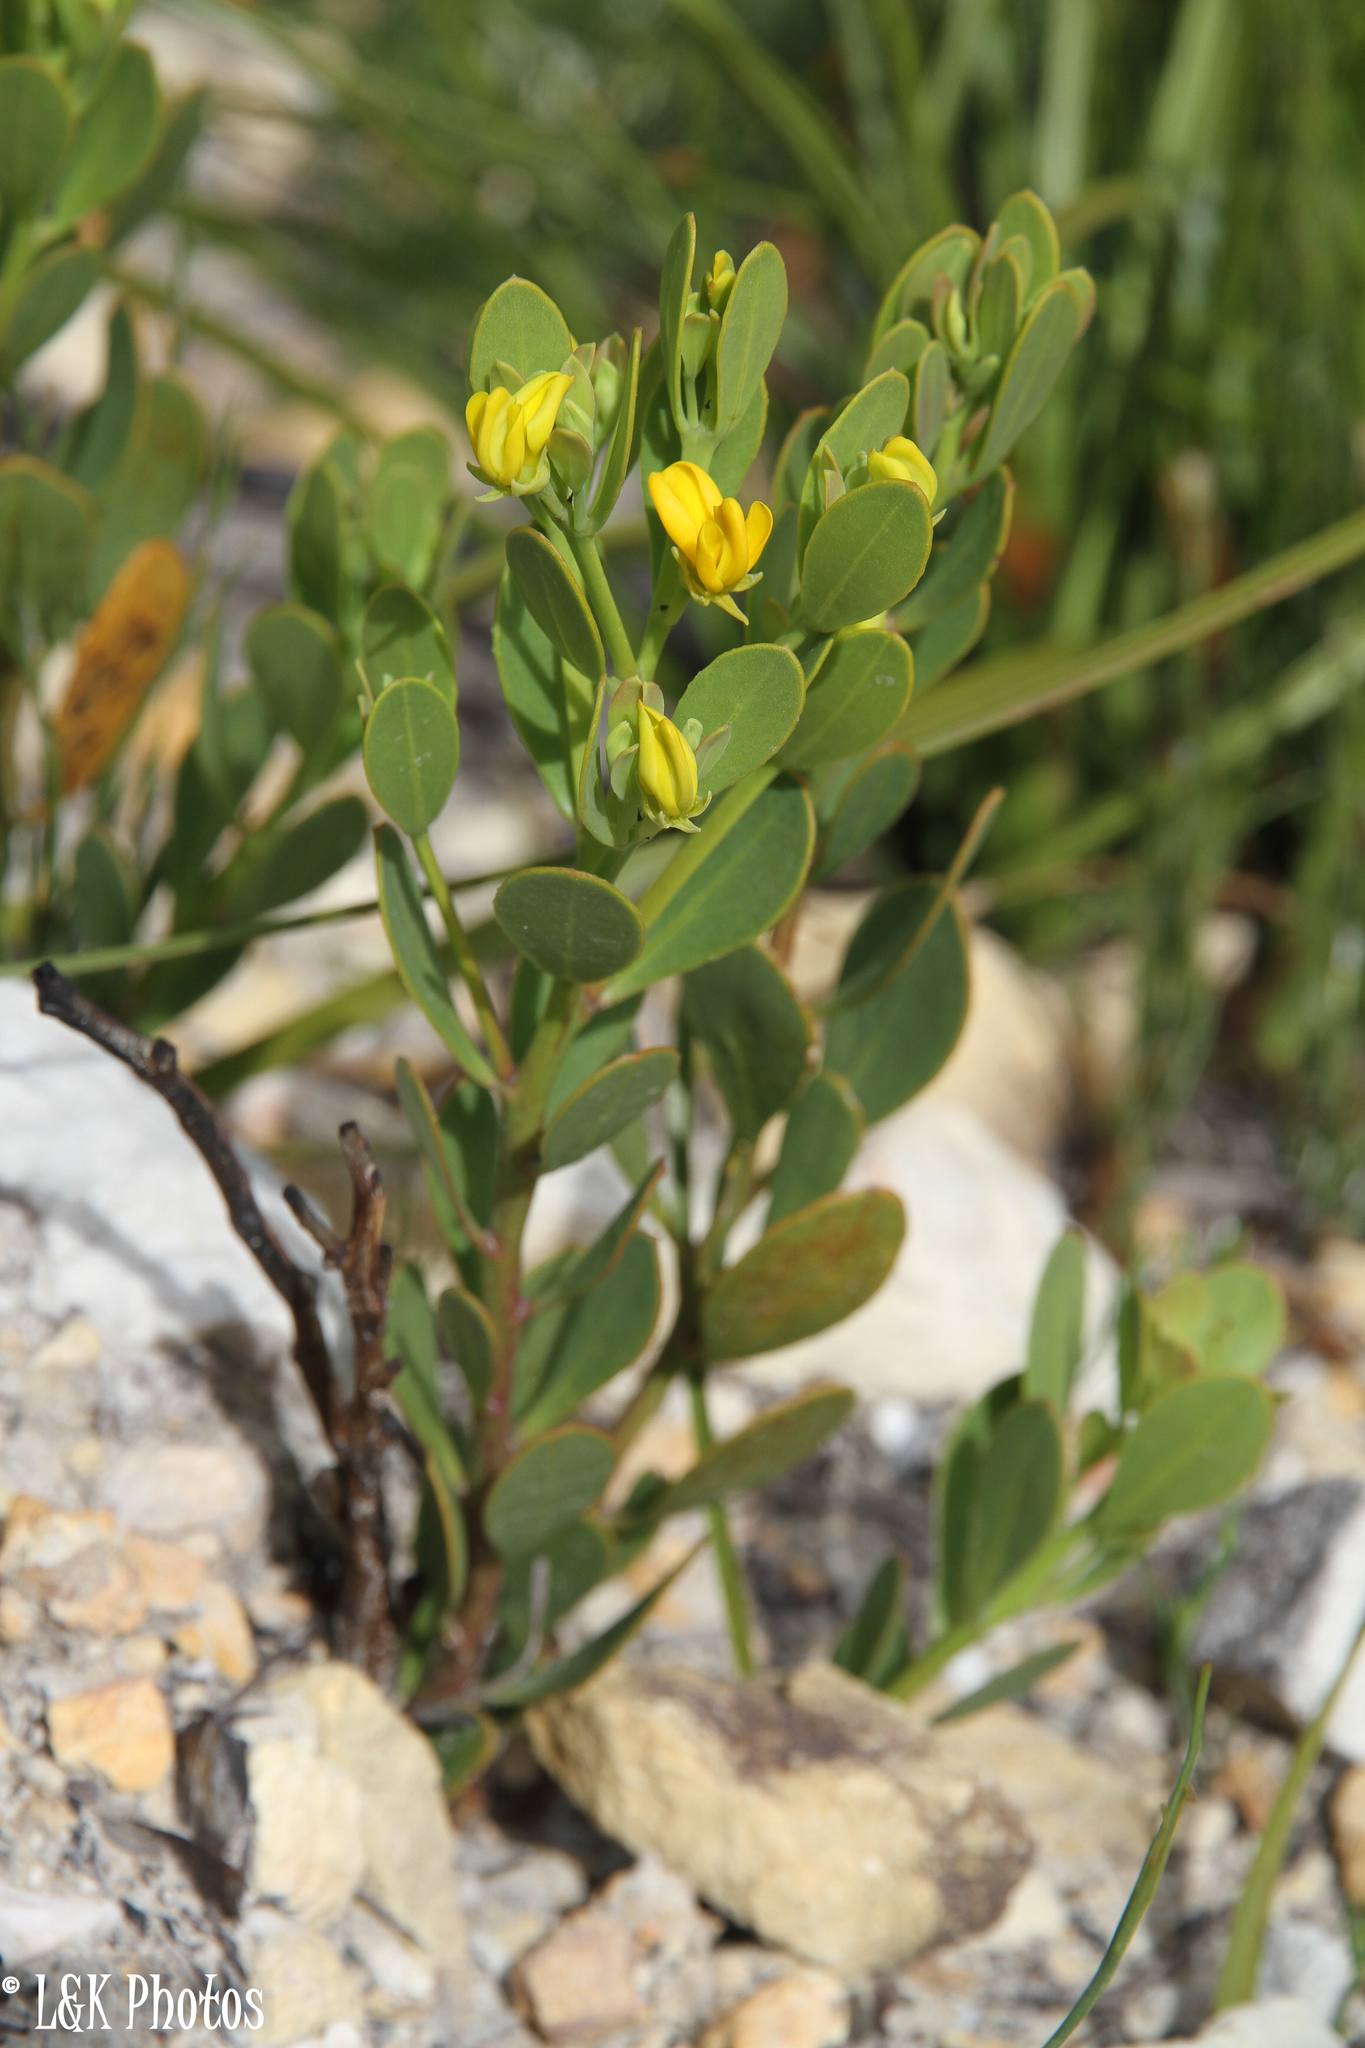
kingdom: Plantae
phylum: Tracheophyta
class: Magnoliopsida
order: Fabales
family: Fabaceae
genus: Rafnia
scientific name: Rafnia capensis
